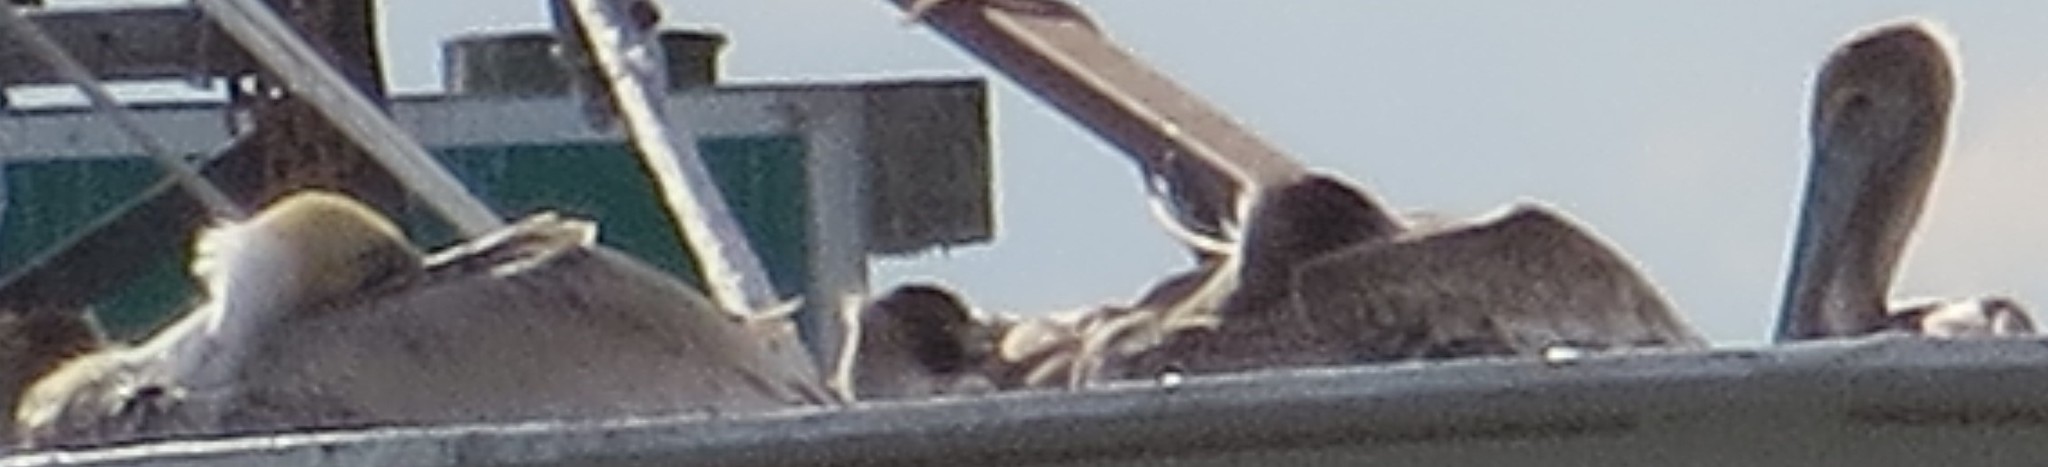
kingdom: Animalia
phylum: Chordata
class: Aves
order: Pelecaniformes
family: Pelecanidae
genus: Pelecanus
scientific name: Pelecanus occidentalis
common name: Brown pelican
